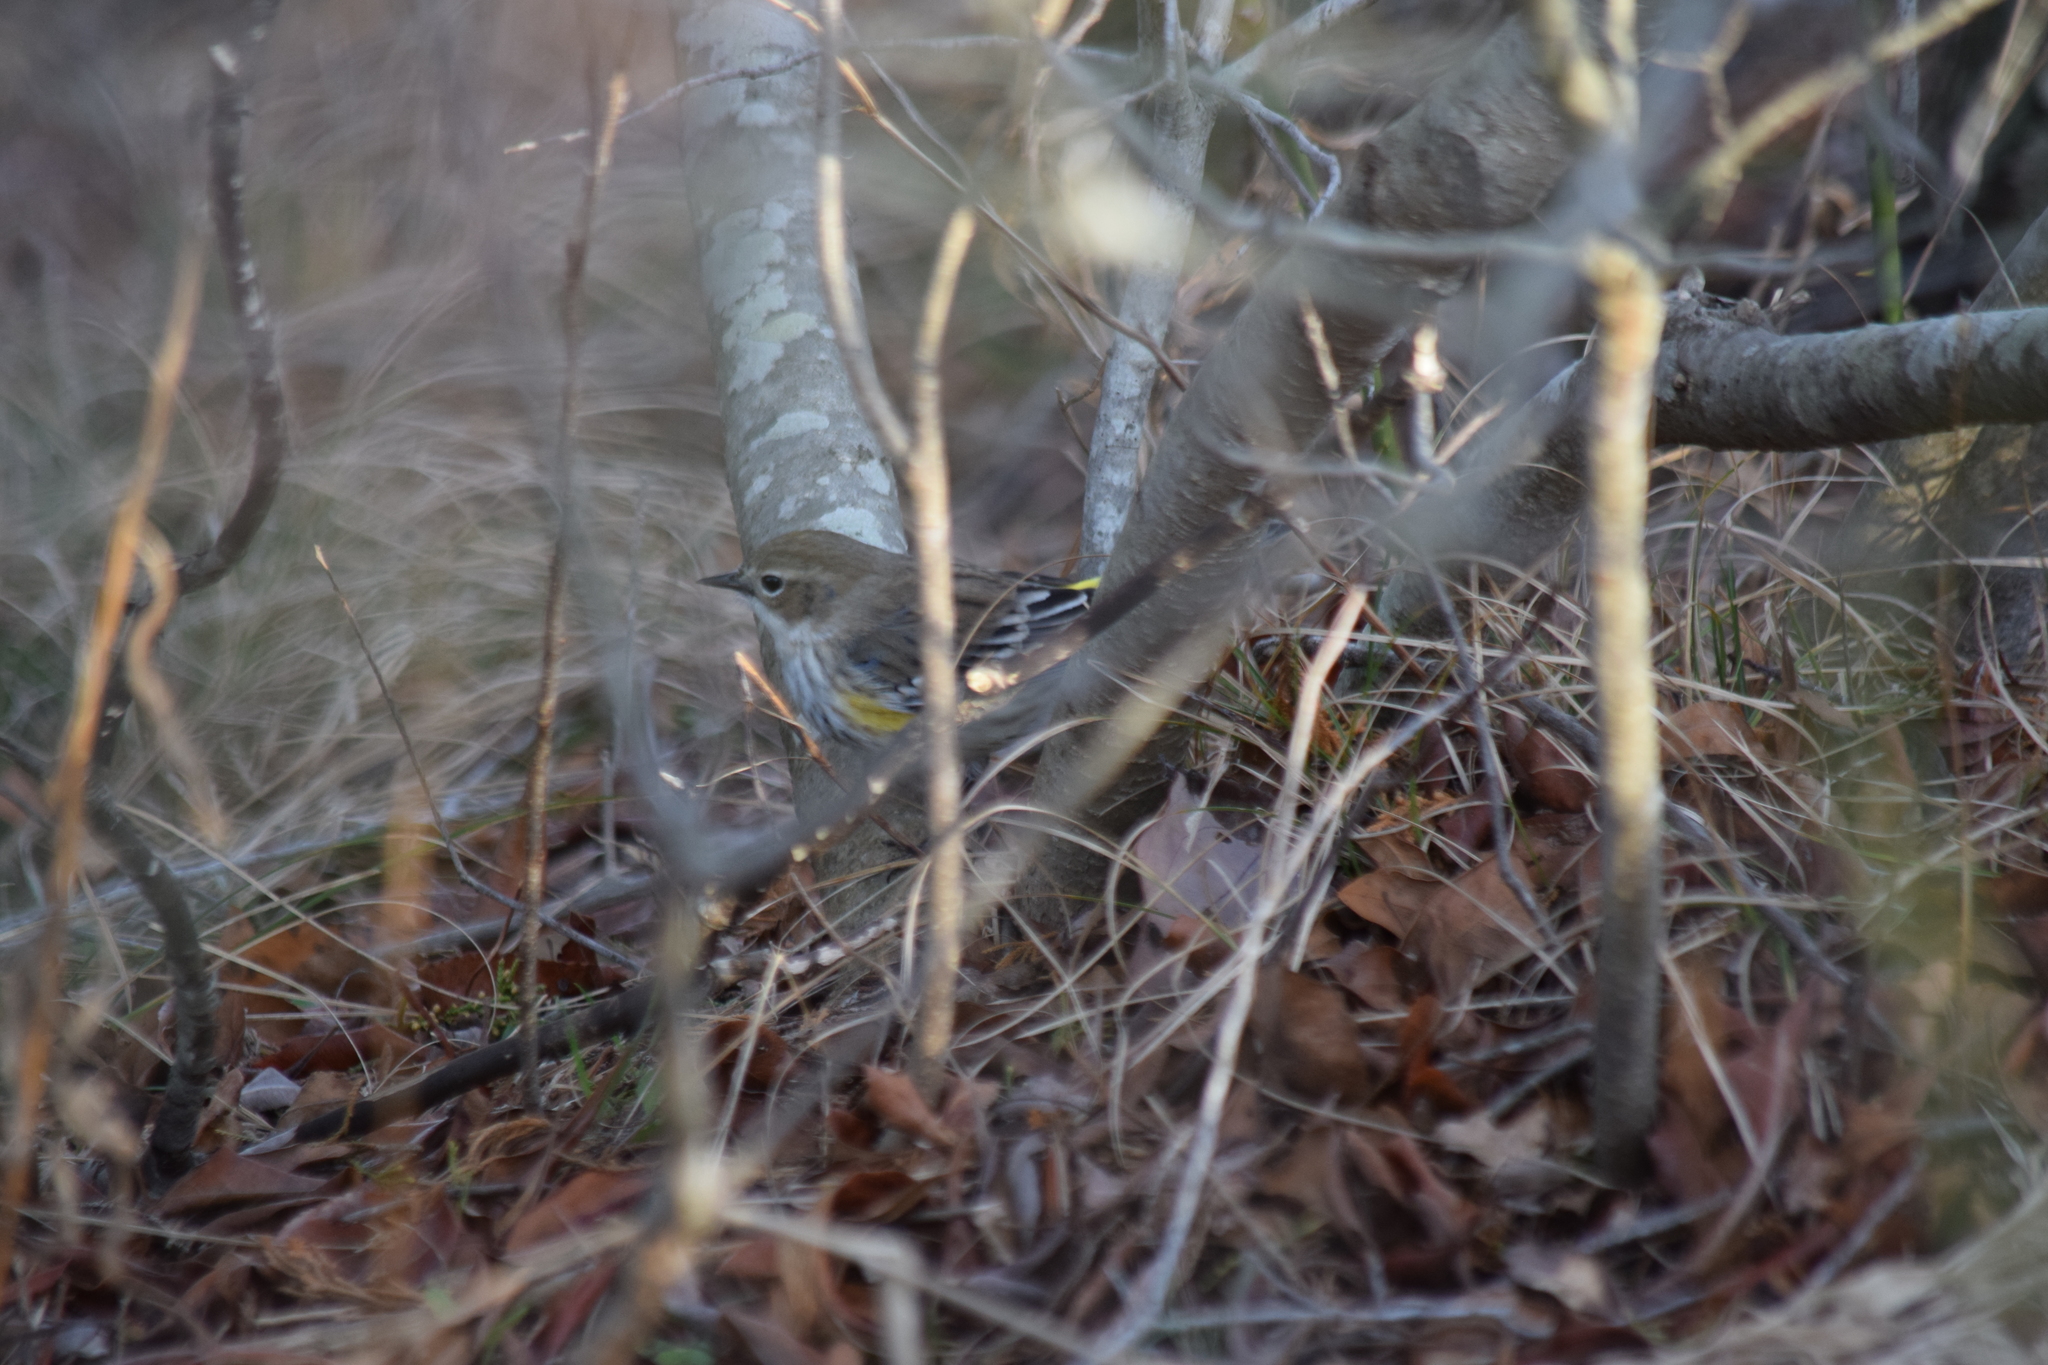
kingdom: Animalia
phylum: Chordata
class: Aves
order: Passeriformes
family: Parulidae
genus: Setophaga
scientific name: Setophaga coronata
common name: Myrtle warbler
